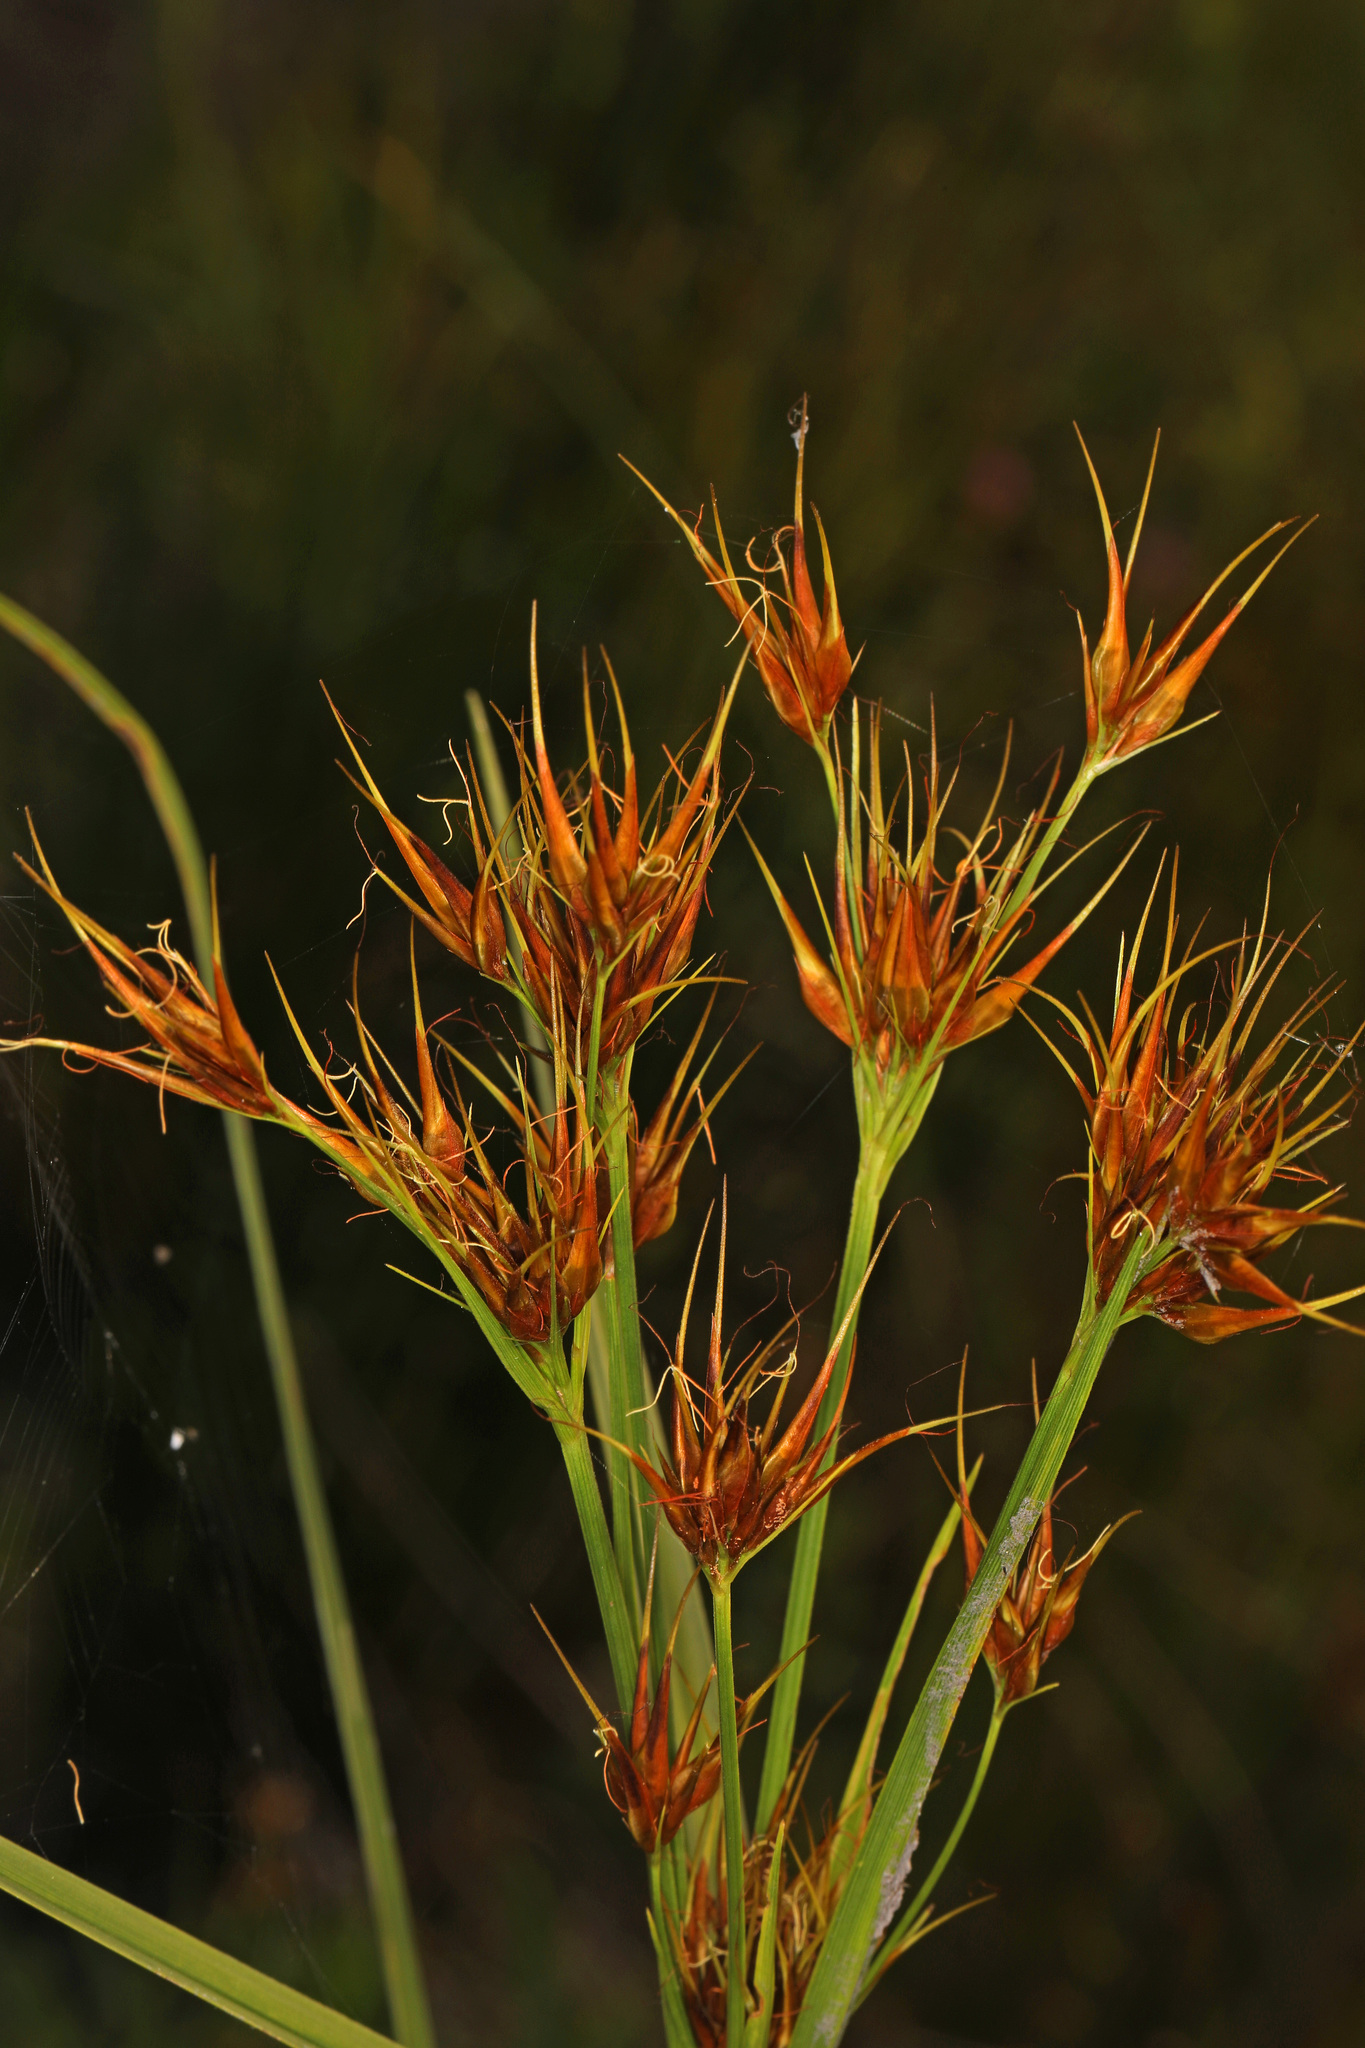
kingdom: Plantae
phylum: Tracheophyta
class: Liliopsida
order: Poales
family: Cyperaceae
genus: Rhynchospora
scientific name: Rhynchospora macrostachya
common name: Tall beakrush
